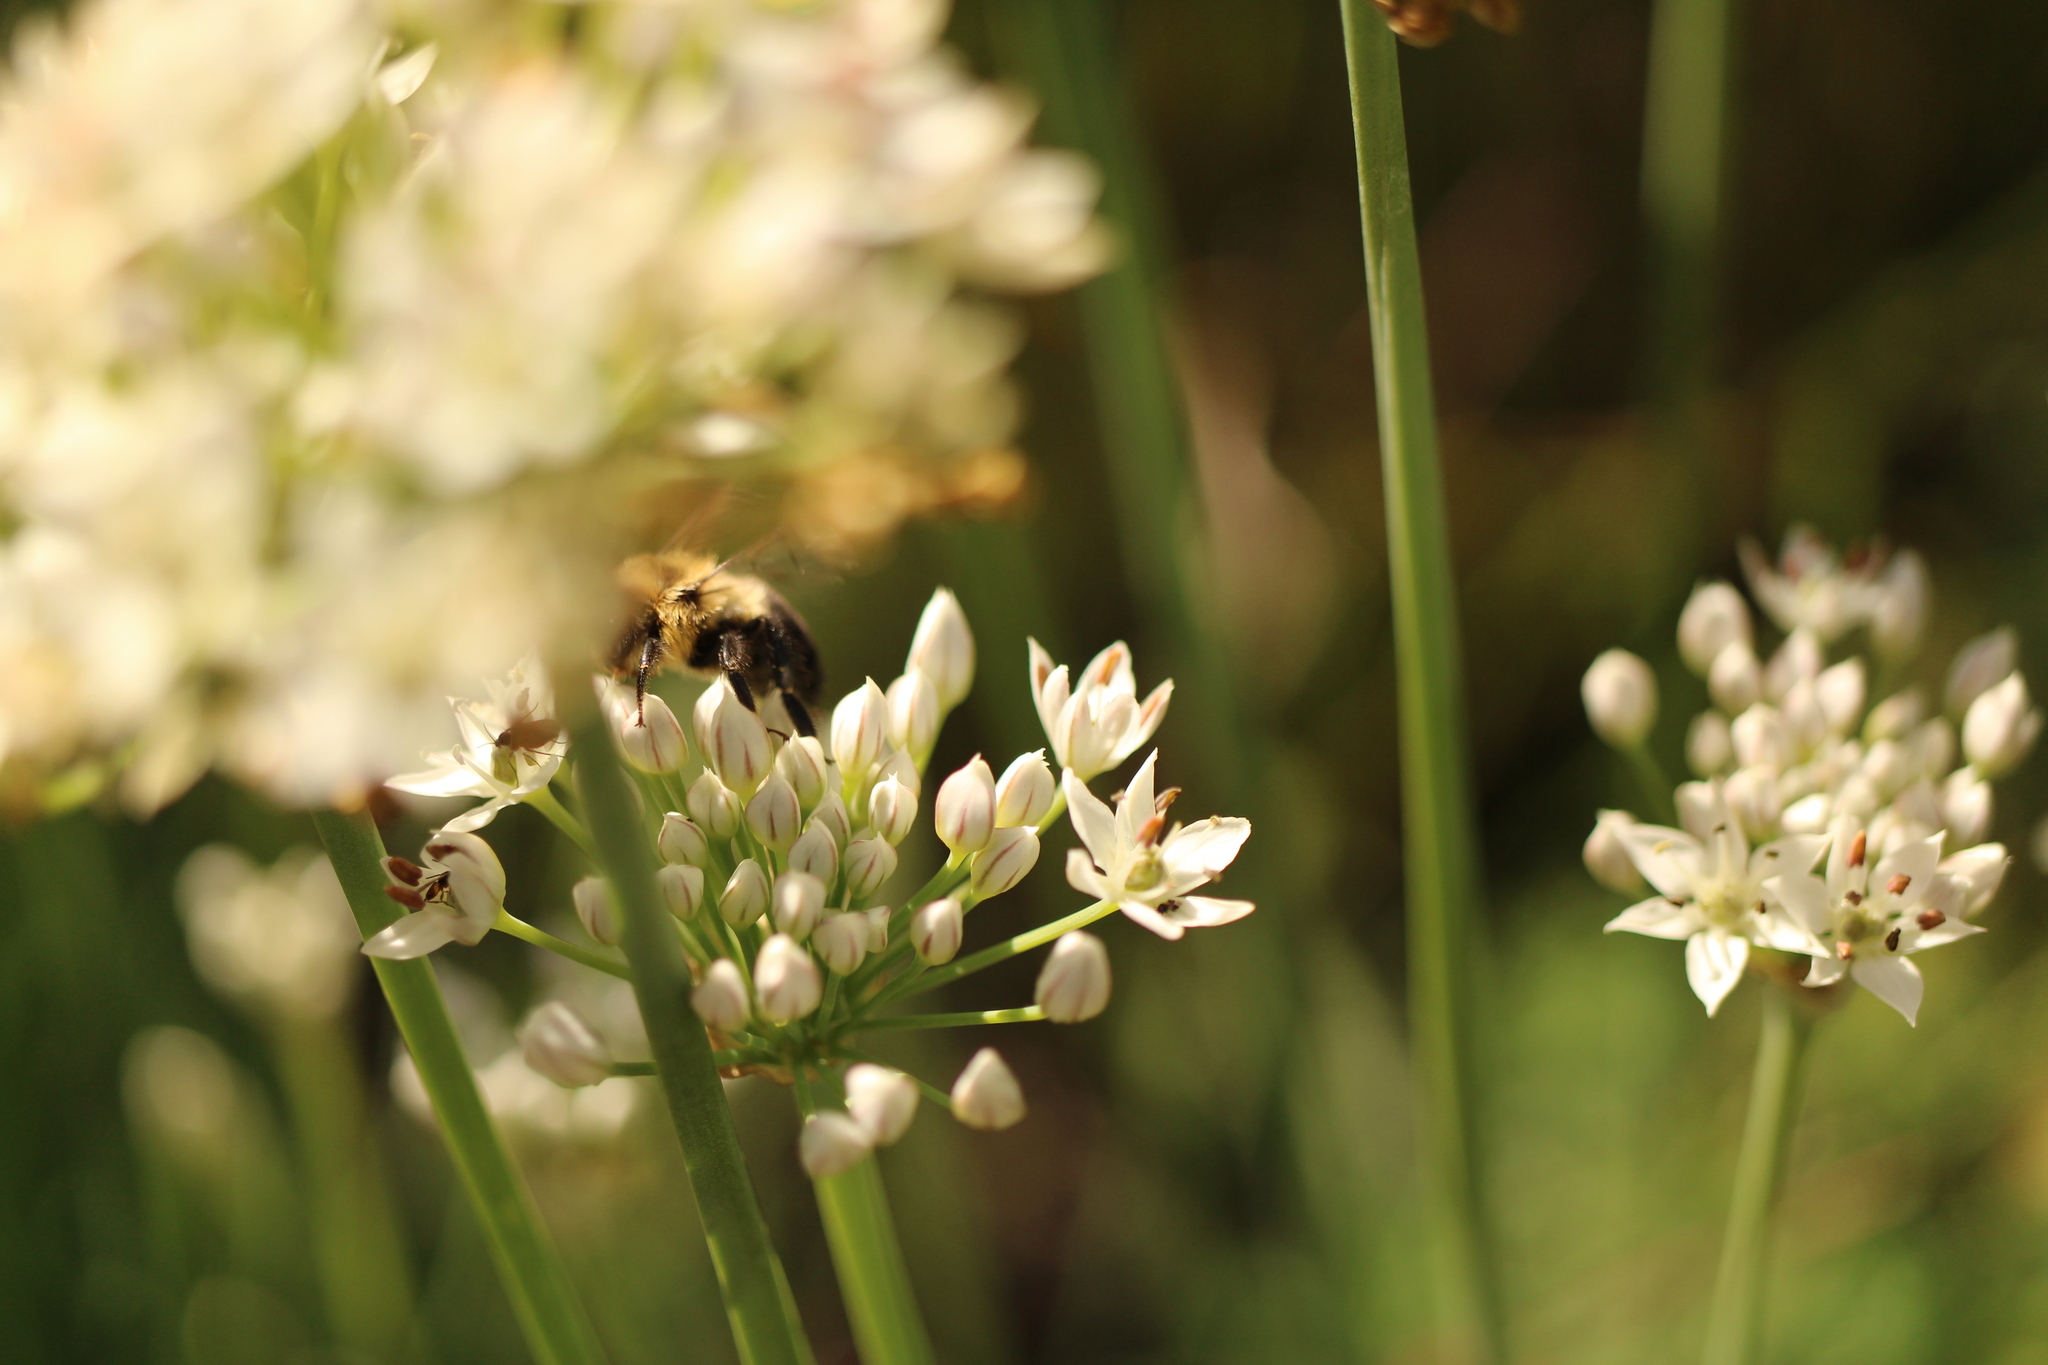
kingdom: Animalia
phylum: Arthropoda
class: Insecta
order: Hymenoptera
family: Apidae
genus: Bombus
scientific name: Bombus impatiens
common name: Common eastern bumble bee
